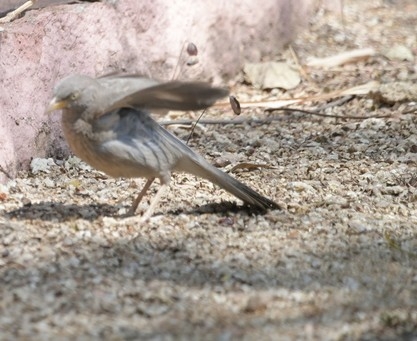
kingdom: Animalia
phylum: Chordata
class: Aves
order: Passeriformes
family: Leiothrichidae
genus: Turdoides
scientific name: Turdoides striata
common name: Jungle babbler
